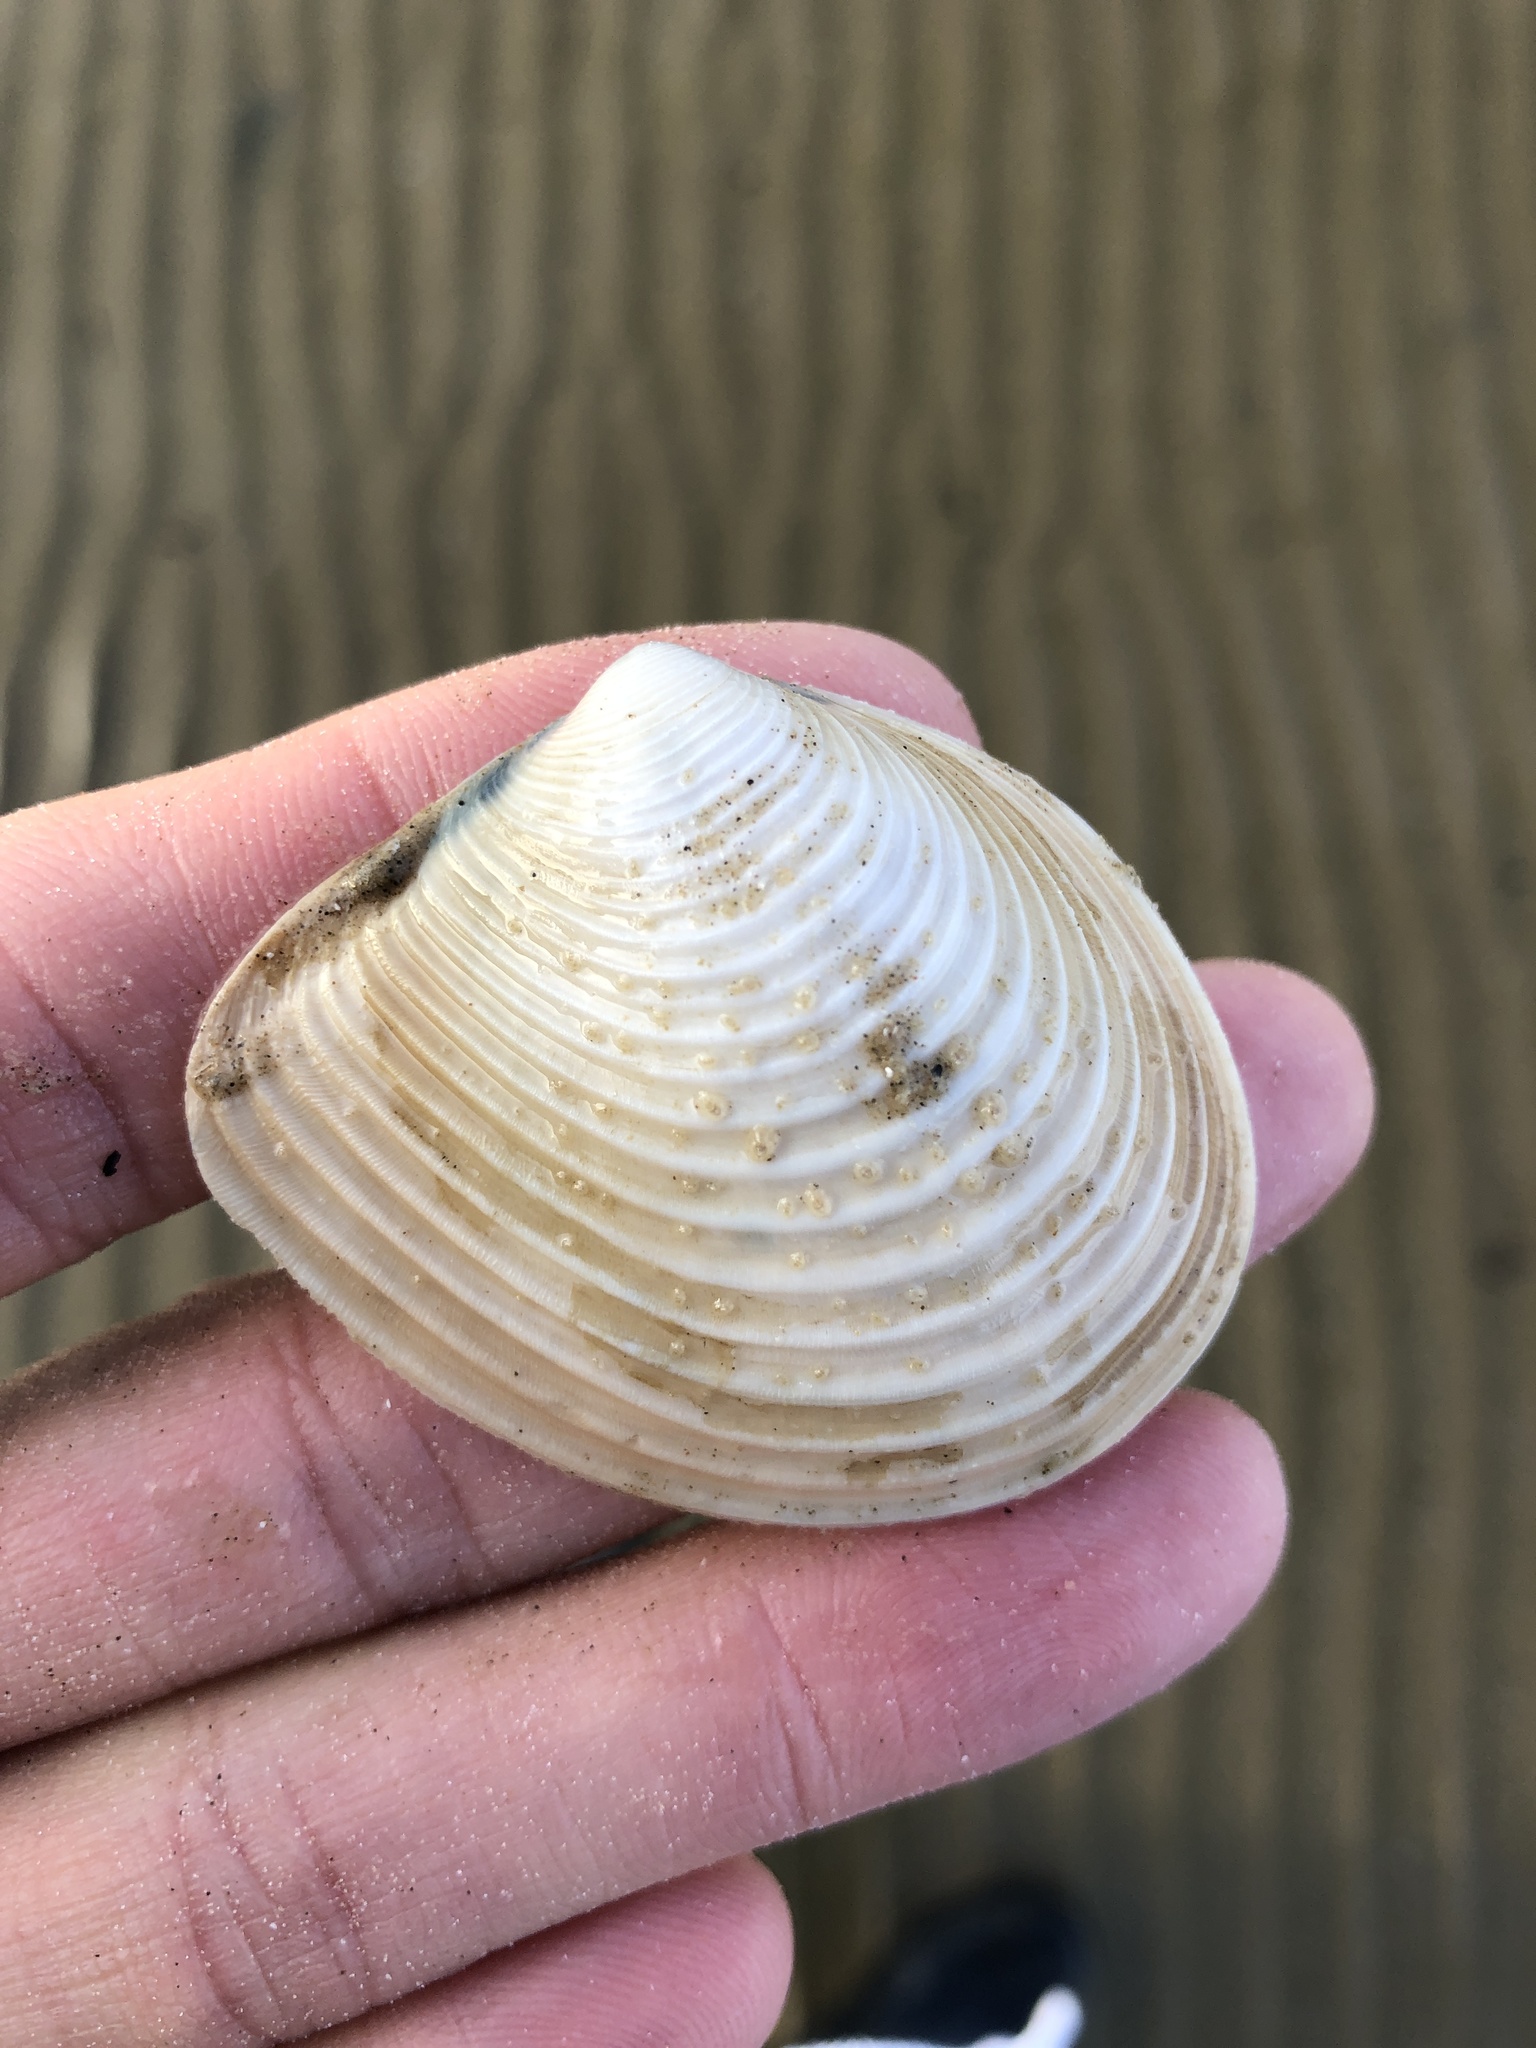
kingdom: Animalia
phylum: Mollusca
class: Bivalvia
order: Venerida
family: Anatinellidae
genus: Raeta
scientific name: Raeta plicatella
